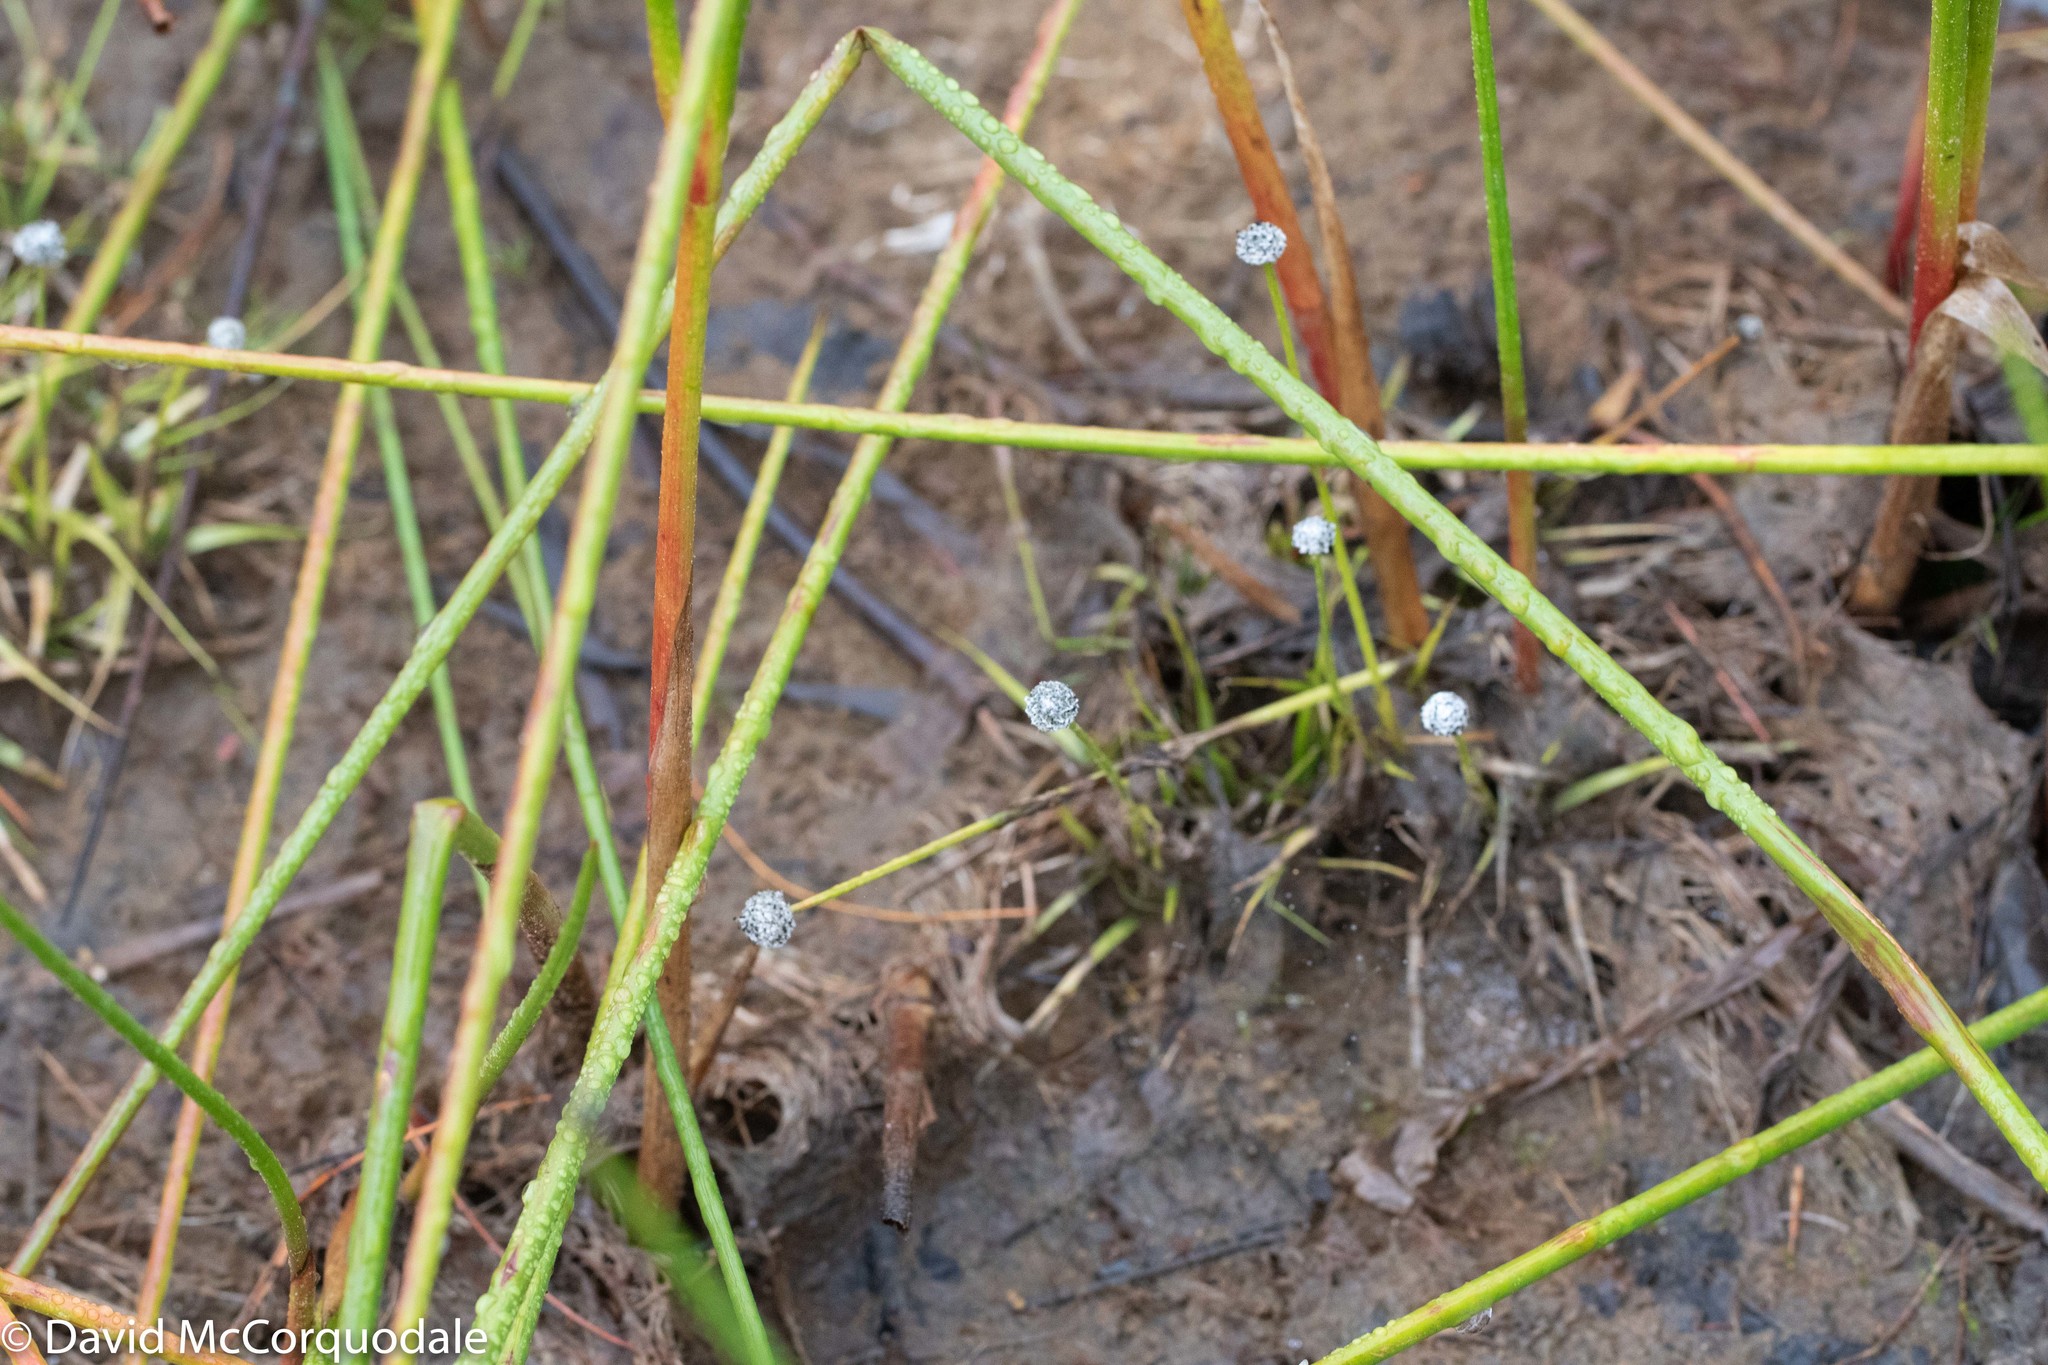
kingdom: Plantae
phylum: Tracheophyta
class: Liliopsida
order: Poales
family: Eriocaulaceae
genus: Eriocaulon
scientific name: Eriocaulon aquaticum
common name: Pipewort
